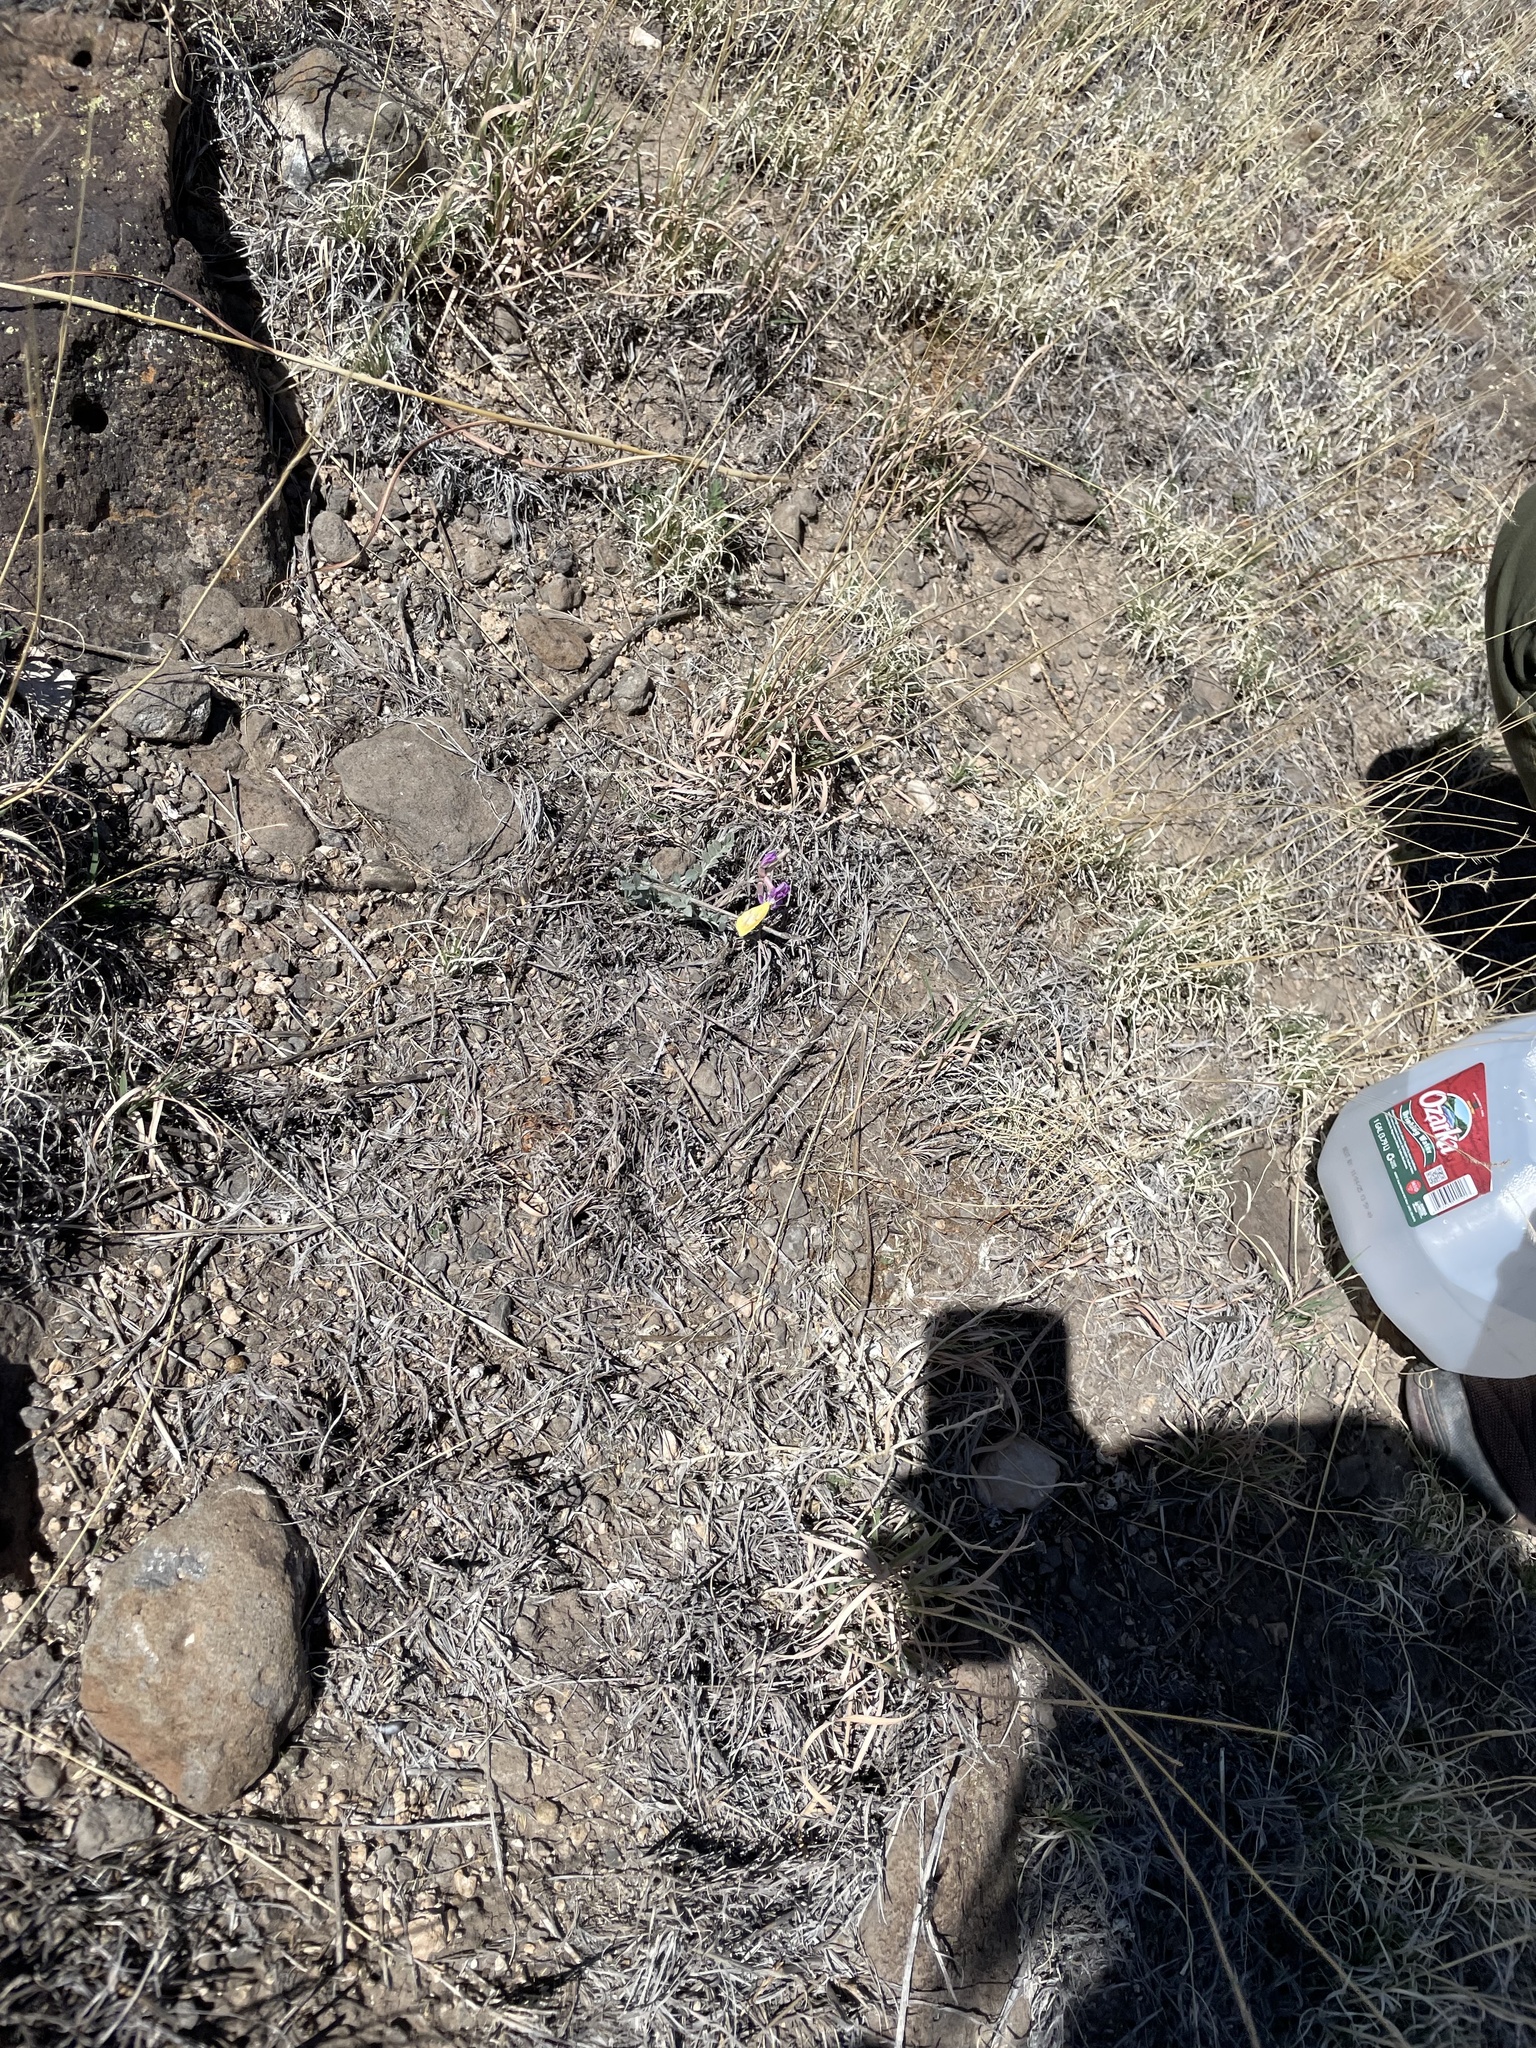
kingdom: Animalia
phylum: Arthropoda
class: Insecta
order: Lepidoptera
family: Pieridae
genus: Abaeis
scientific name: Abaeis nicippe
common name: Sleepy orange
